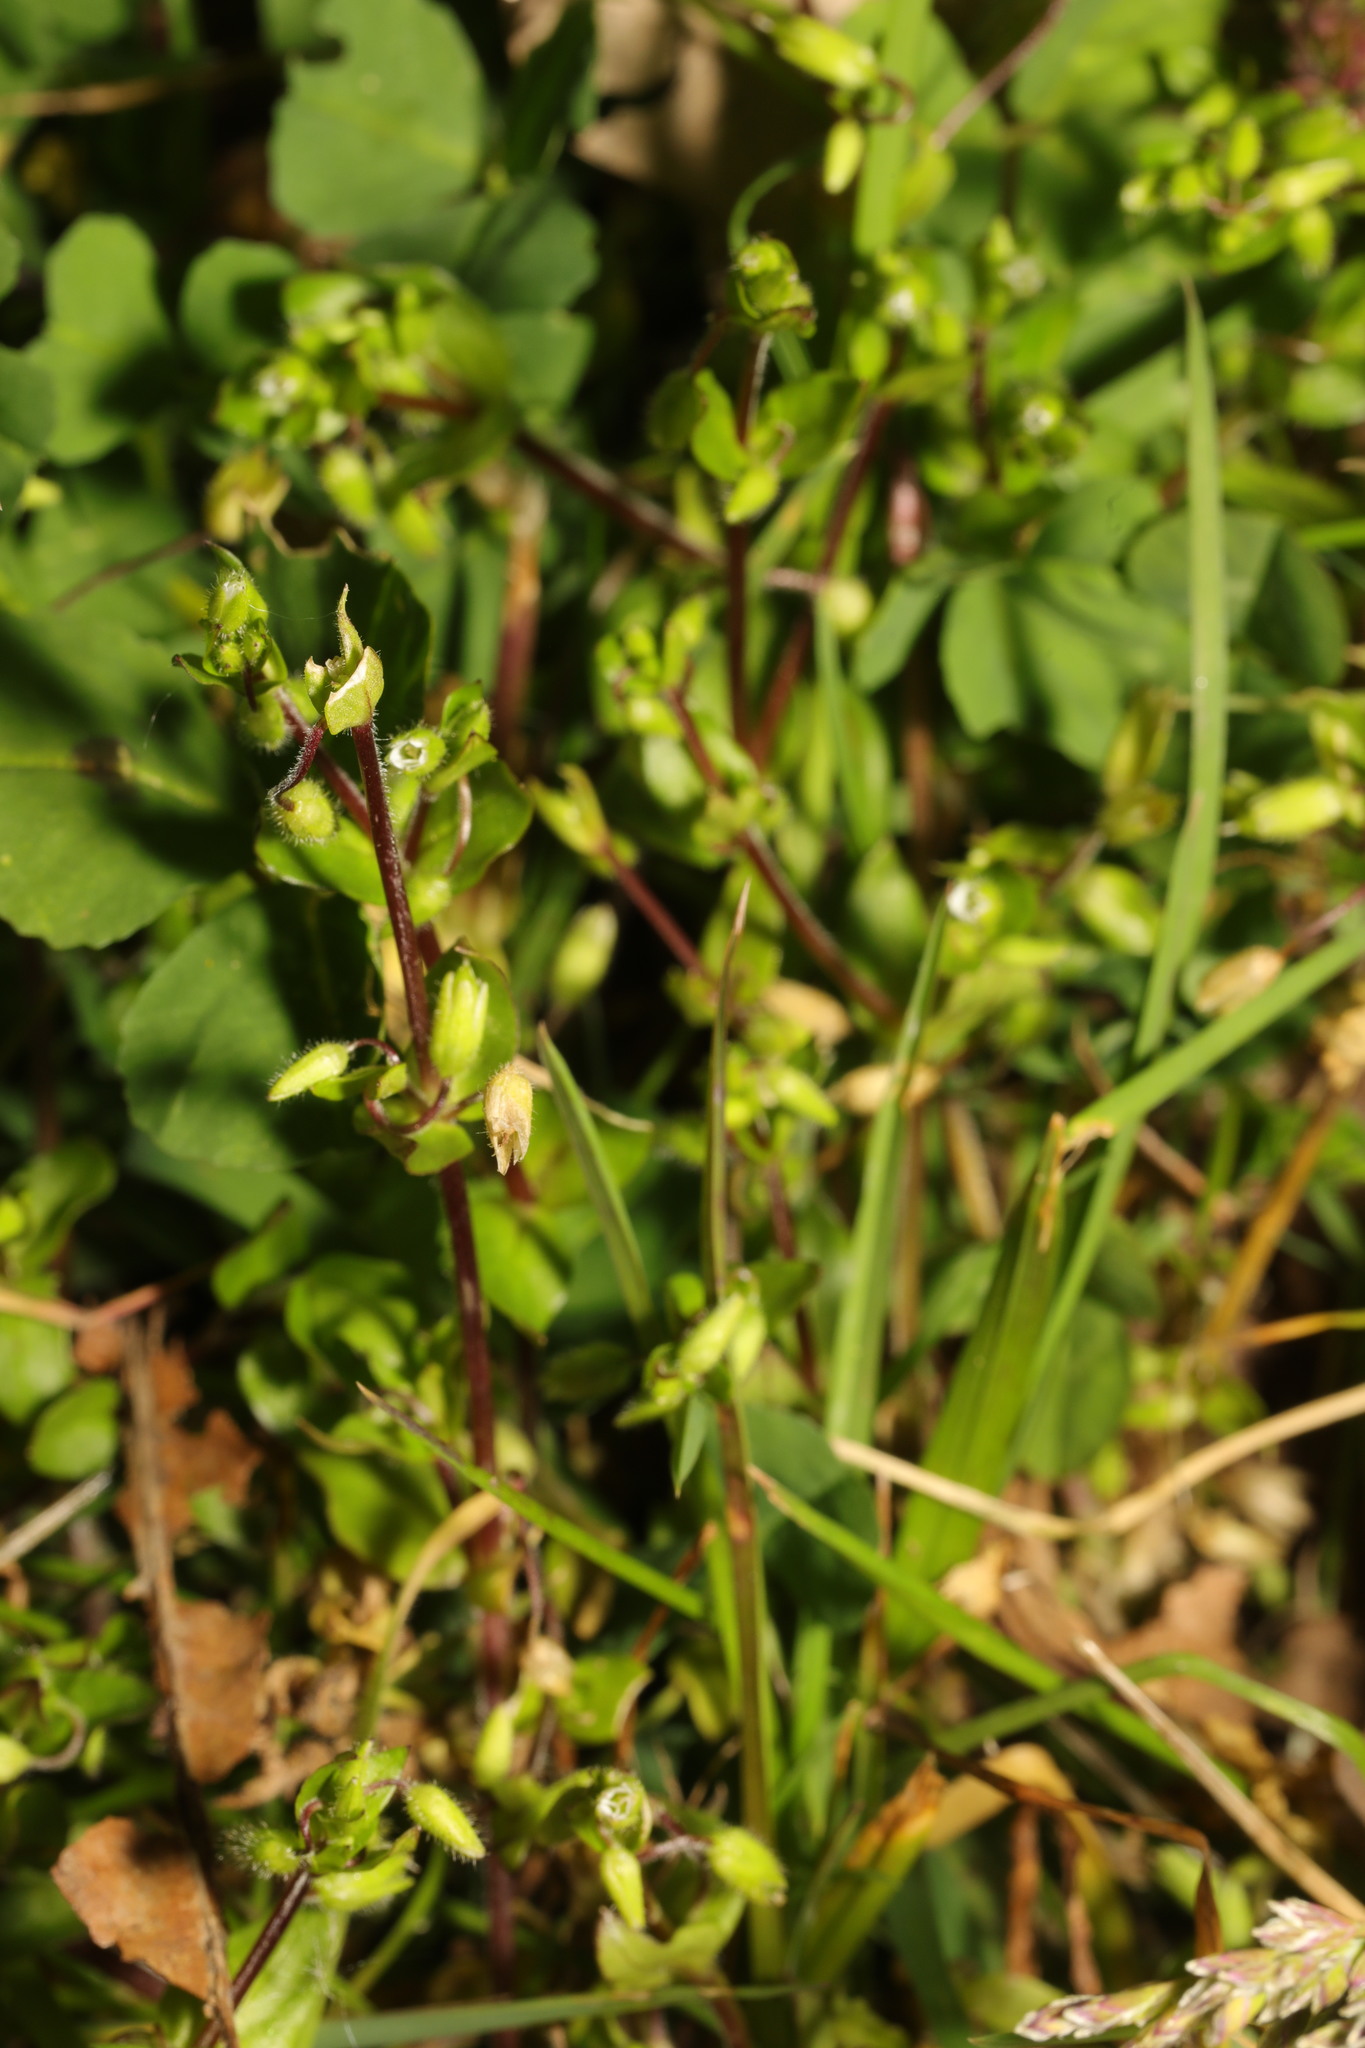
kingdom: Plantae
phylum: Tracheophyta
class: Magnoliopsida
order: Caryophyllales
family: Caryophyllaceae
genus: Stellaria
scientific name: Stellaria media
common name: Common chickweed
